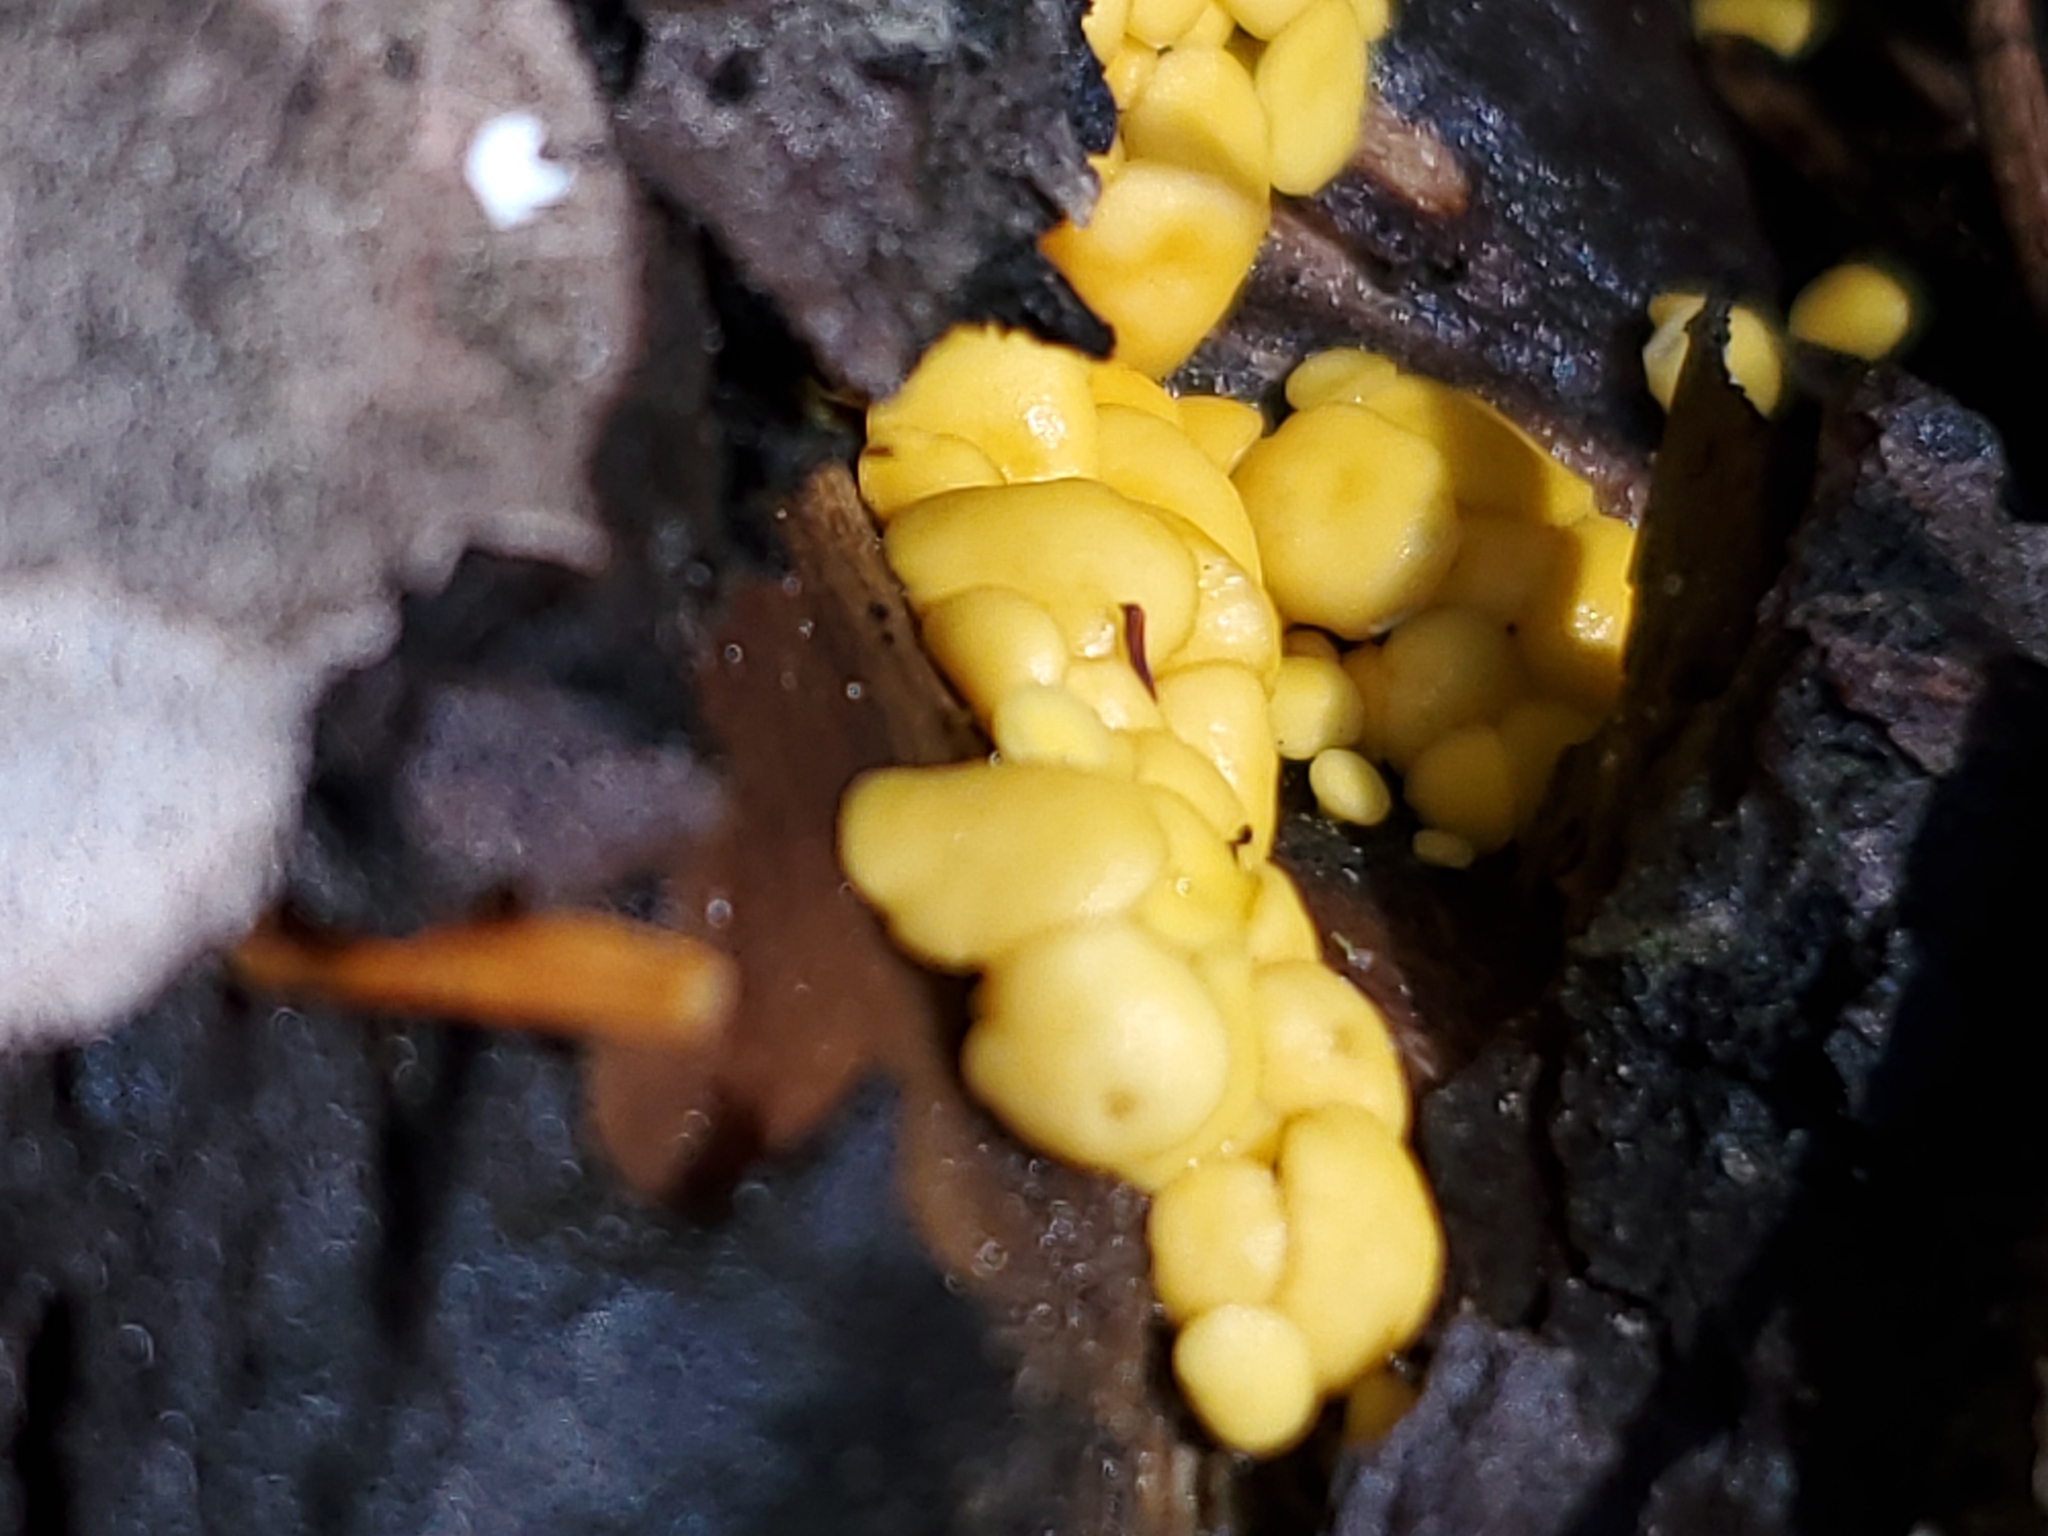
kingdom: Fungi
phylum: Ascomycota
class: Leotiomycetes
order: Helotiales
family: Pezizellaceae
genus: Calycina
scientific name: Calycina citrina
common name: Yellow fairy cups
